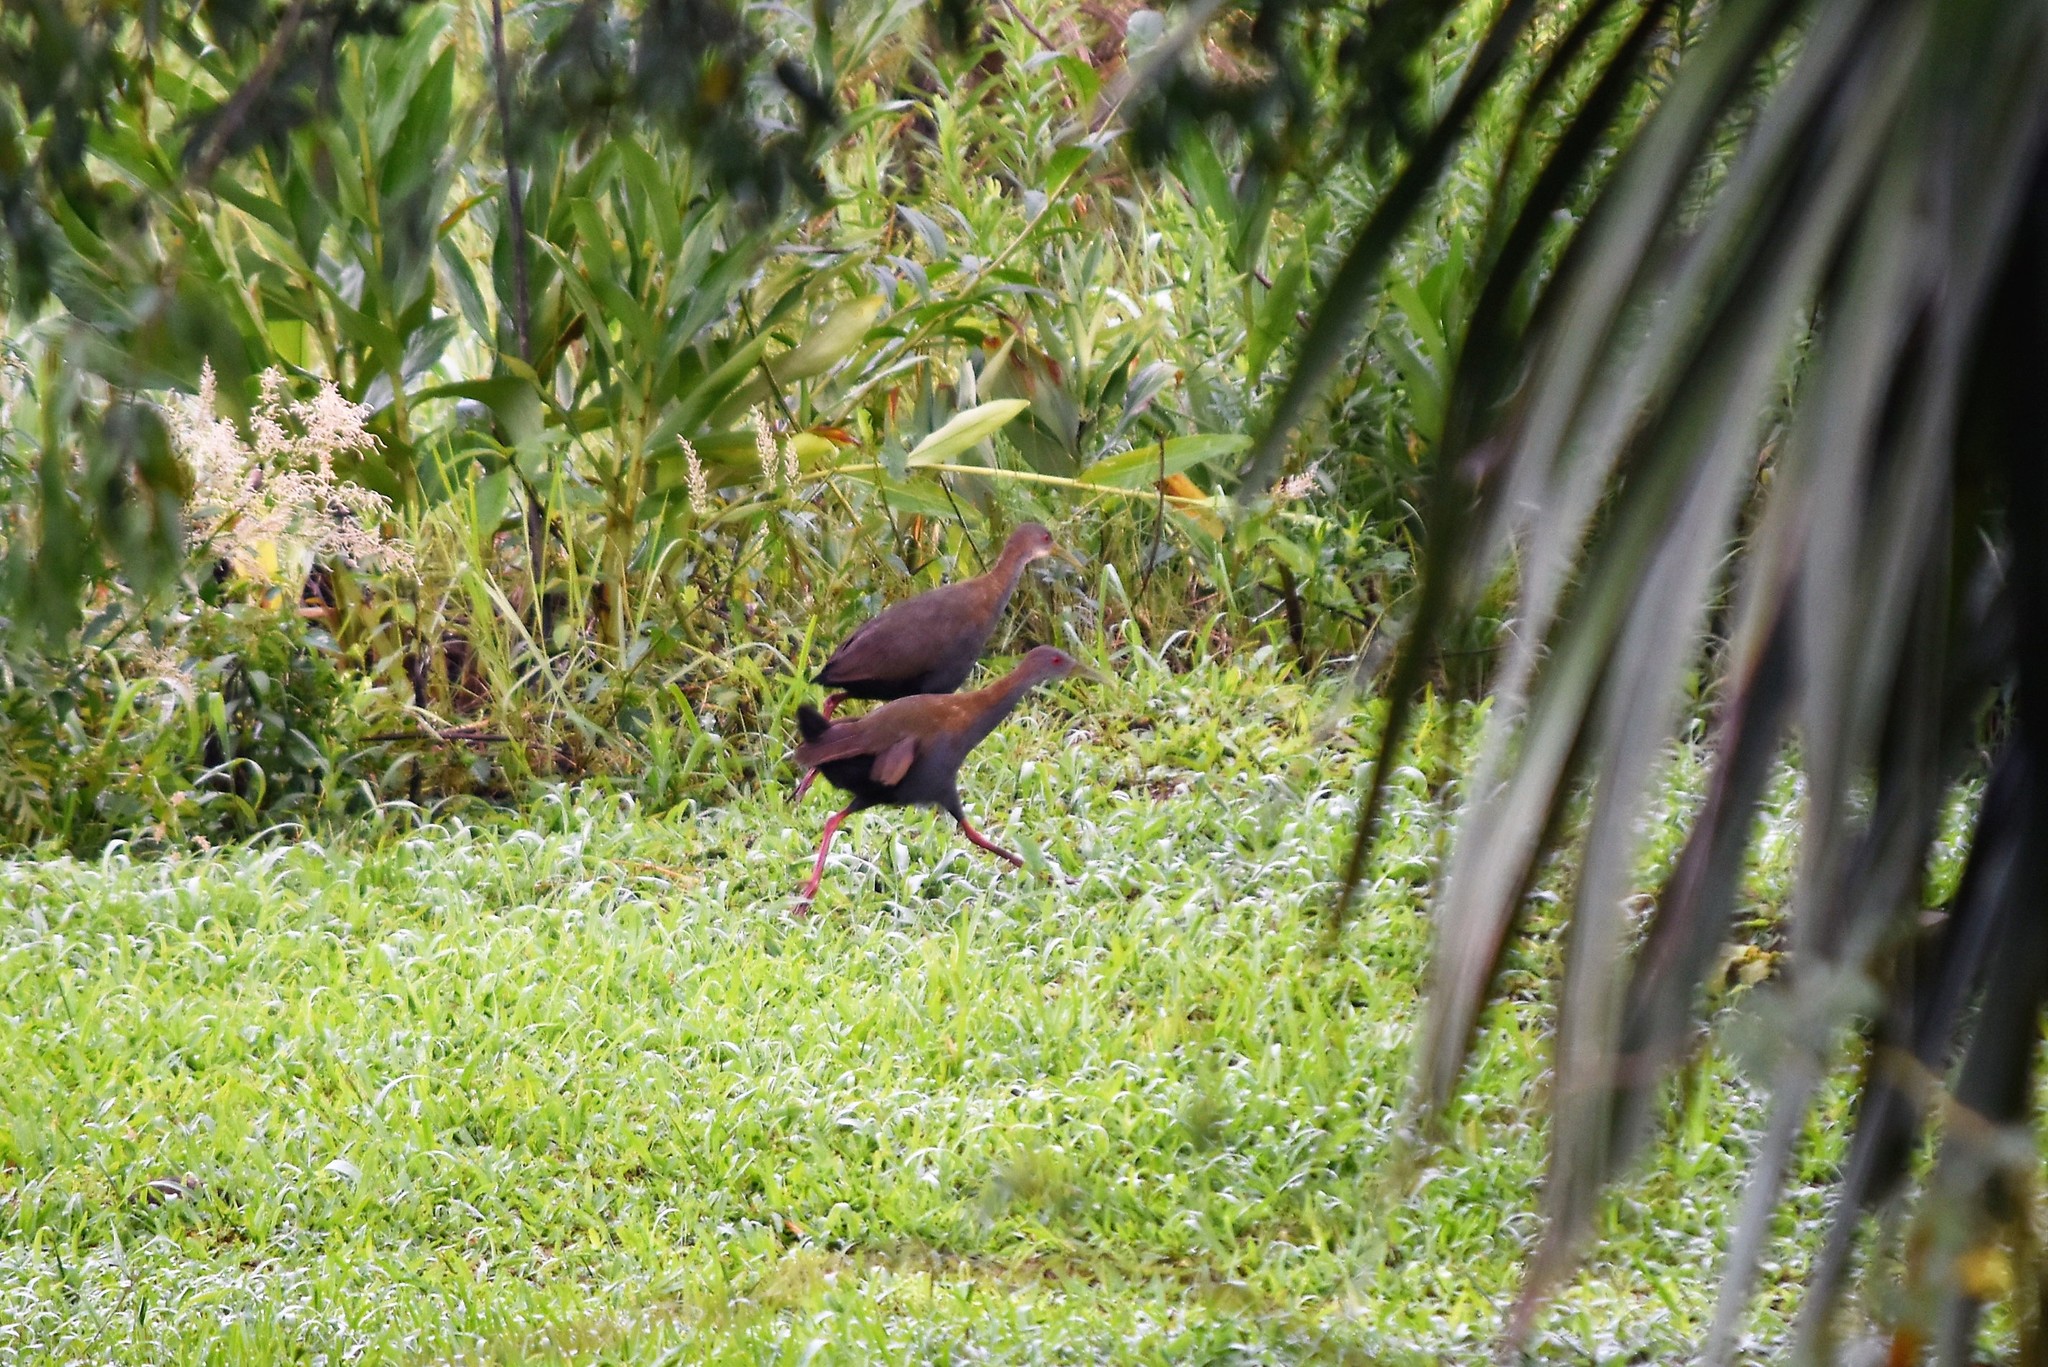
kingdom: Animalia
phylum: Chordata
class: Aves
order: Gruiformes
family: Rallidae
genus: Aramides
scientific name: Aramides saracura
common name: Slaty-breasted wood rail
